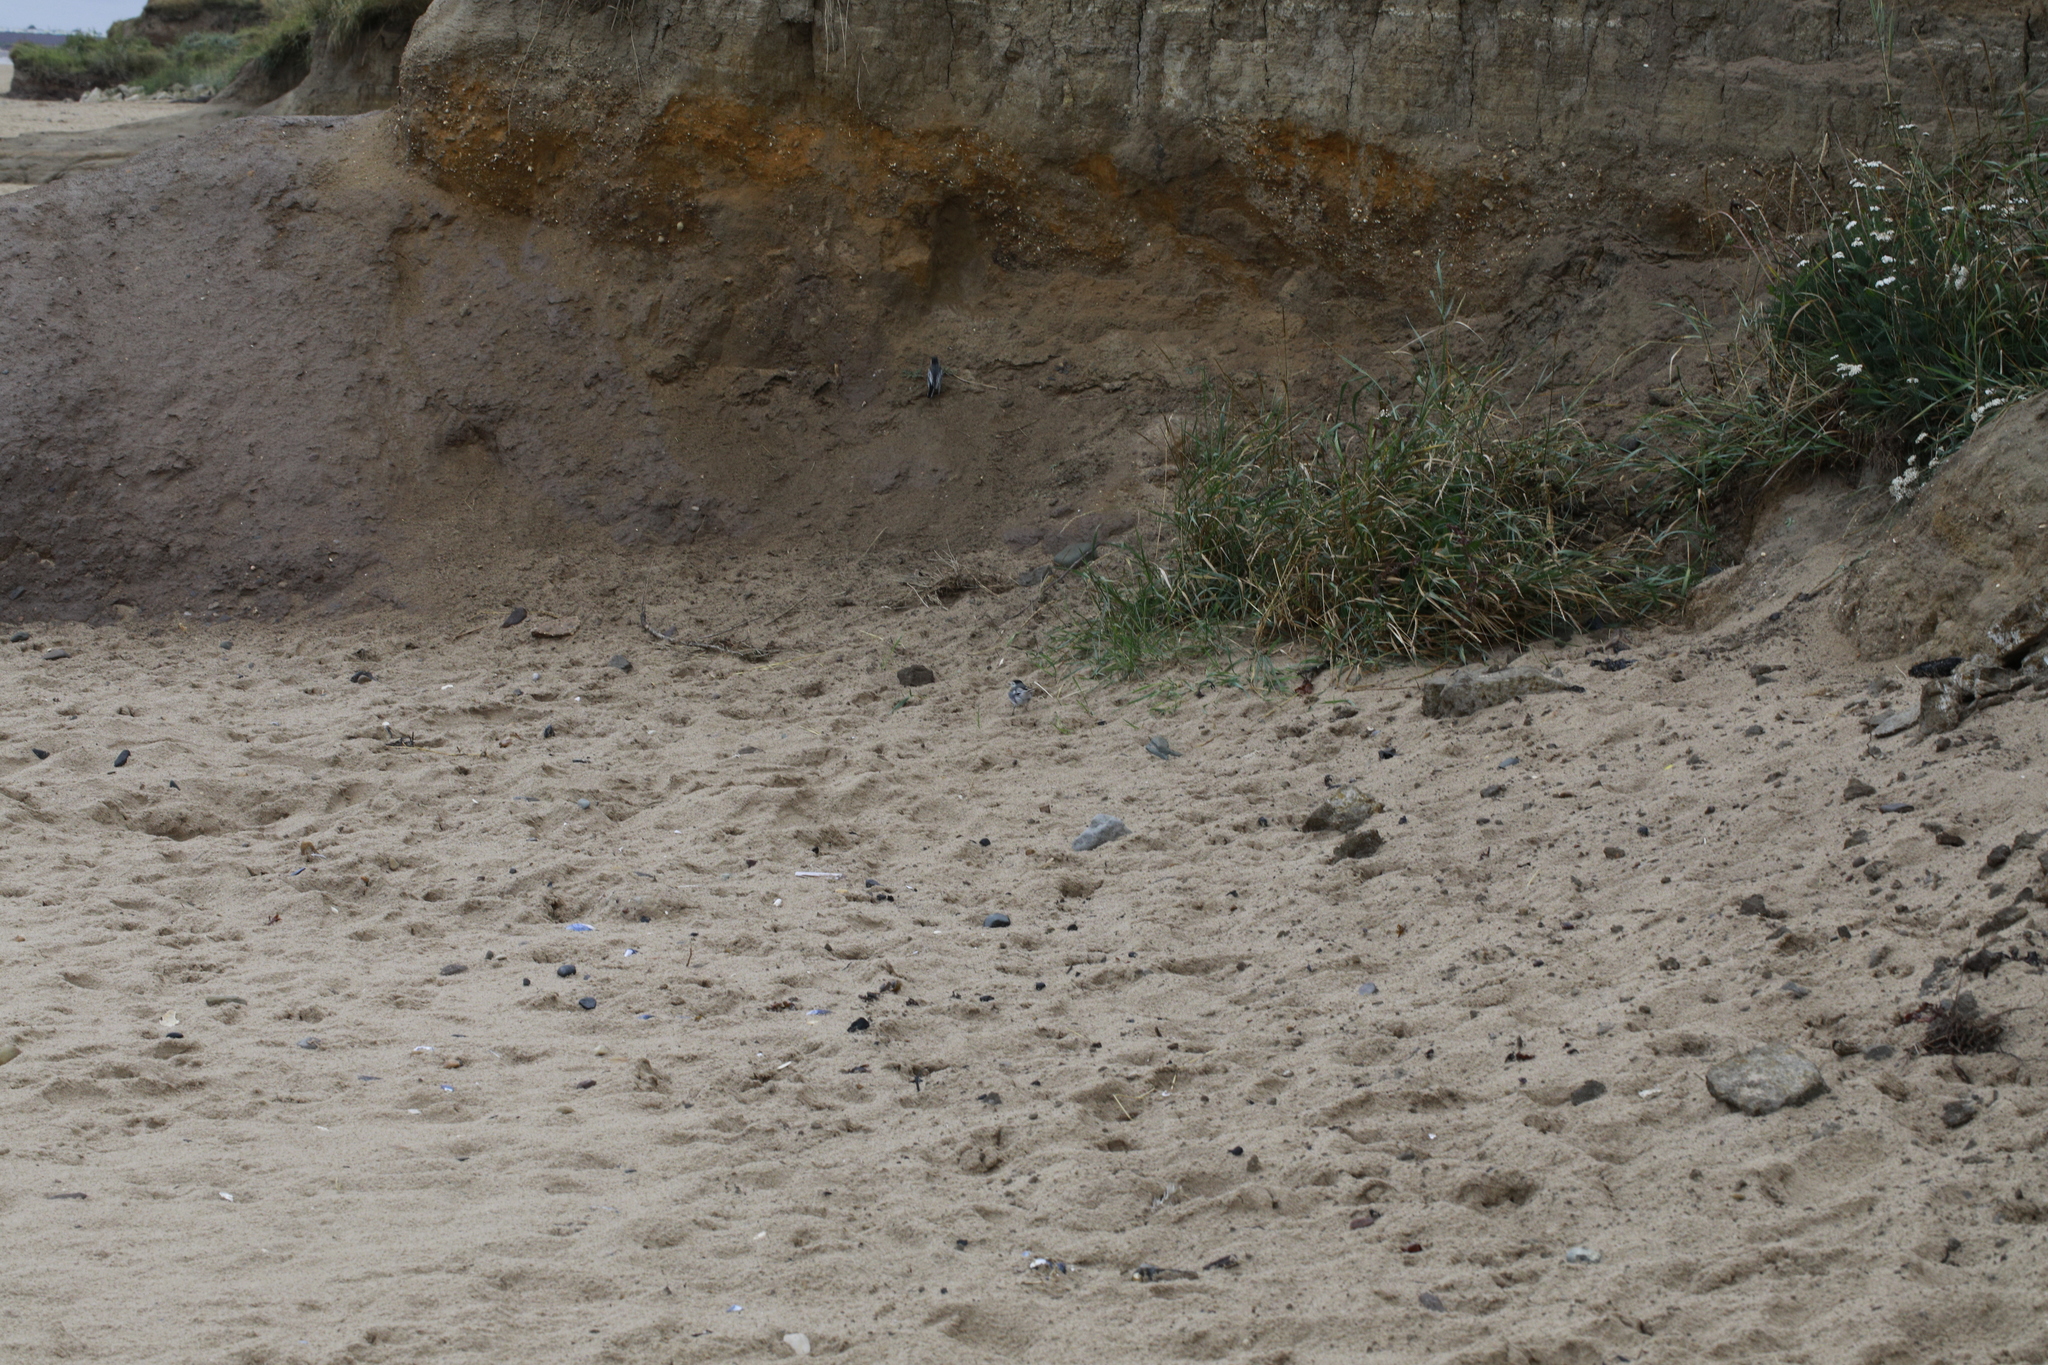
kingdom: Animalia
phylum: Chordata
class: Aves
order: Passeriformes
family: Motacillidae
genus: Motacilla
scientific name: Motacilla alba
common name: White wagtail
